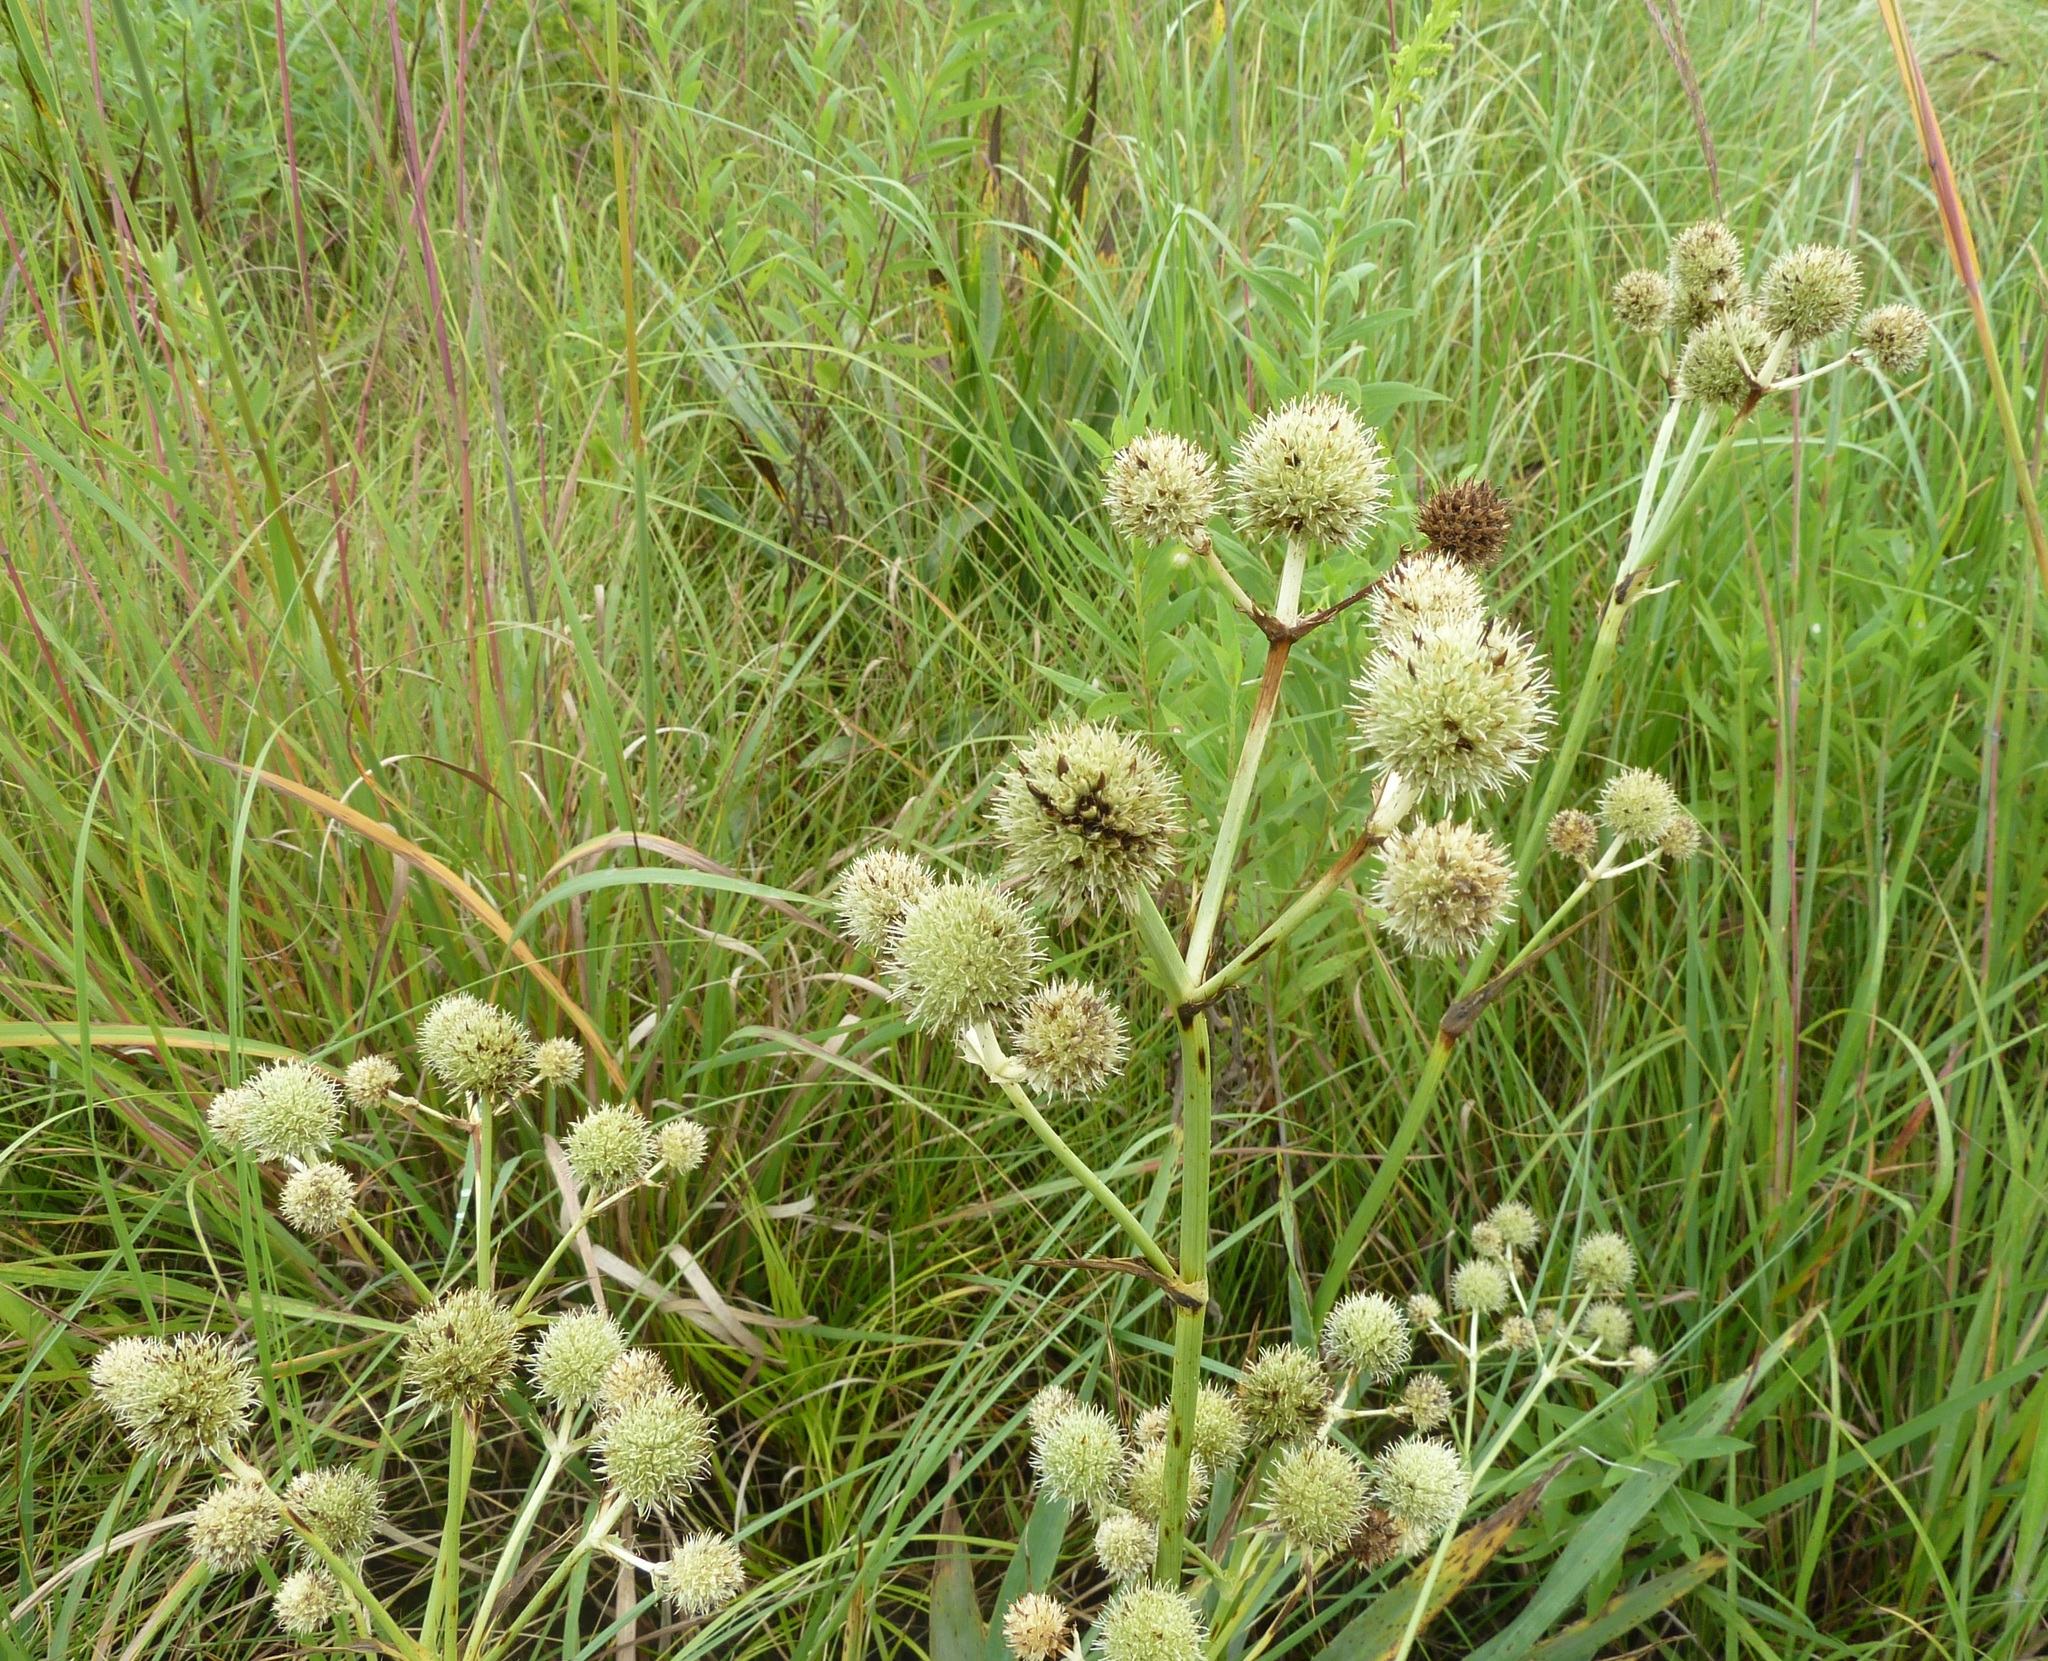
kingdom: Plantae
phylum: Tracheophyta
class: Magnoliopsida
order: Apiales
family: Apiaceae
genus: Eryngium
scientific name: Eryngium yuccifolium
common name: Button eryngo
